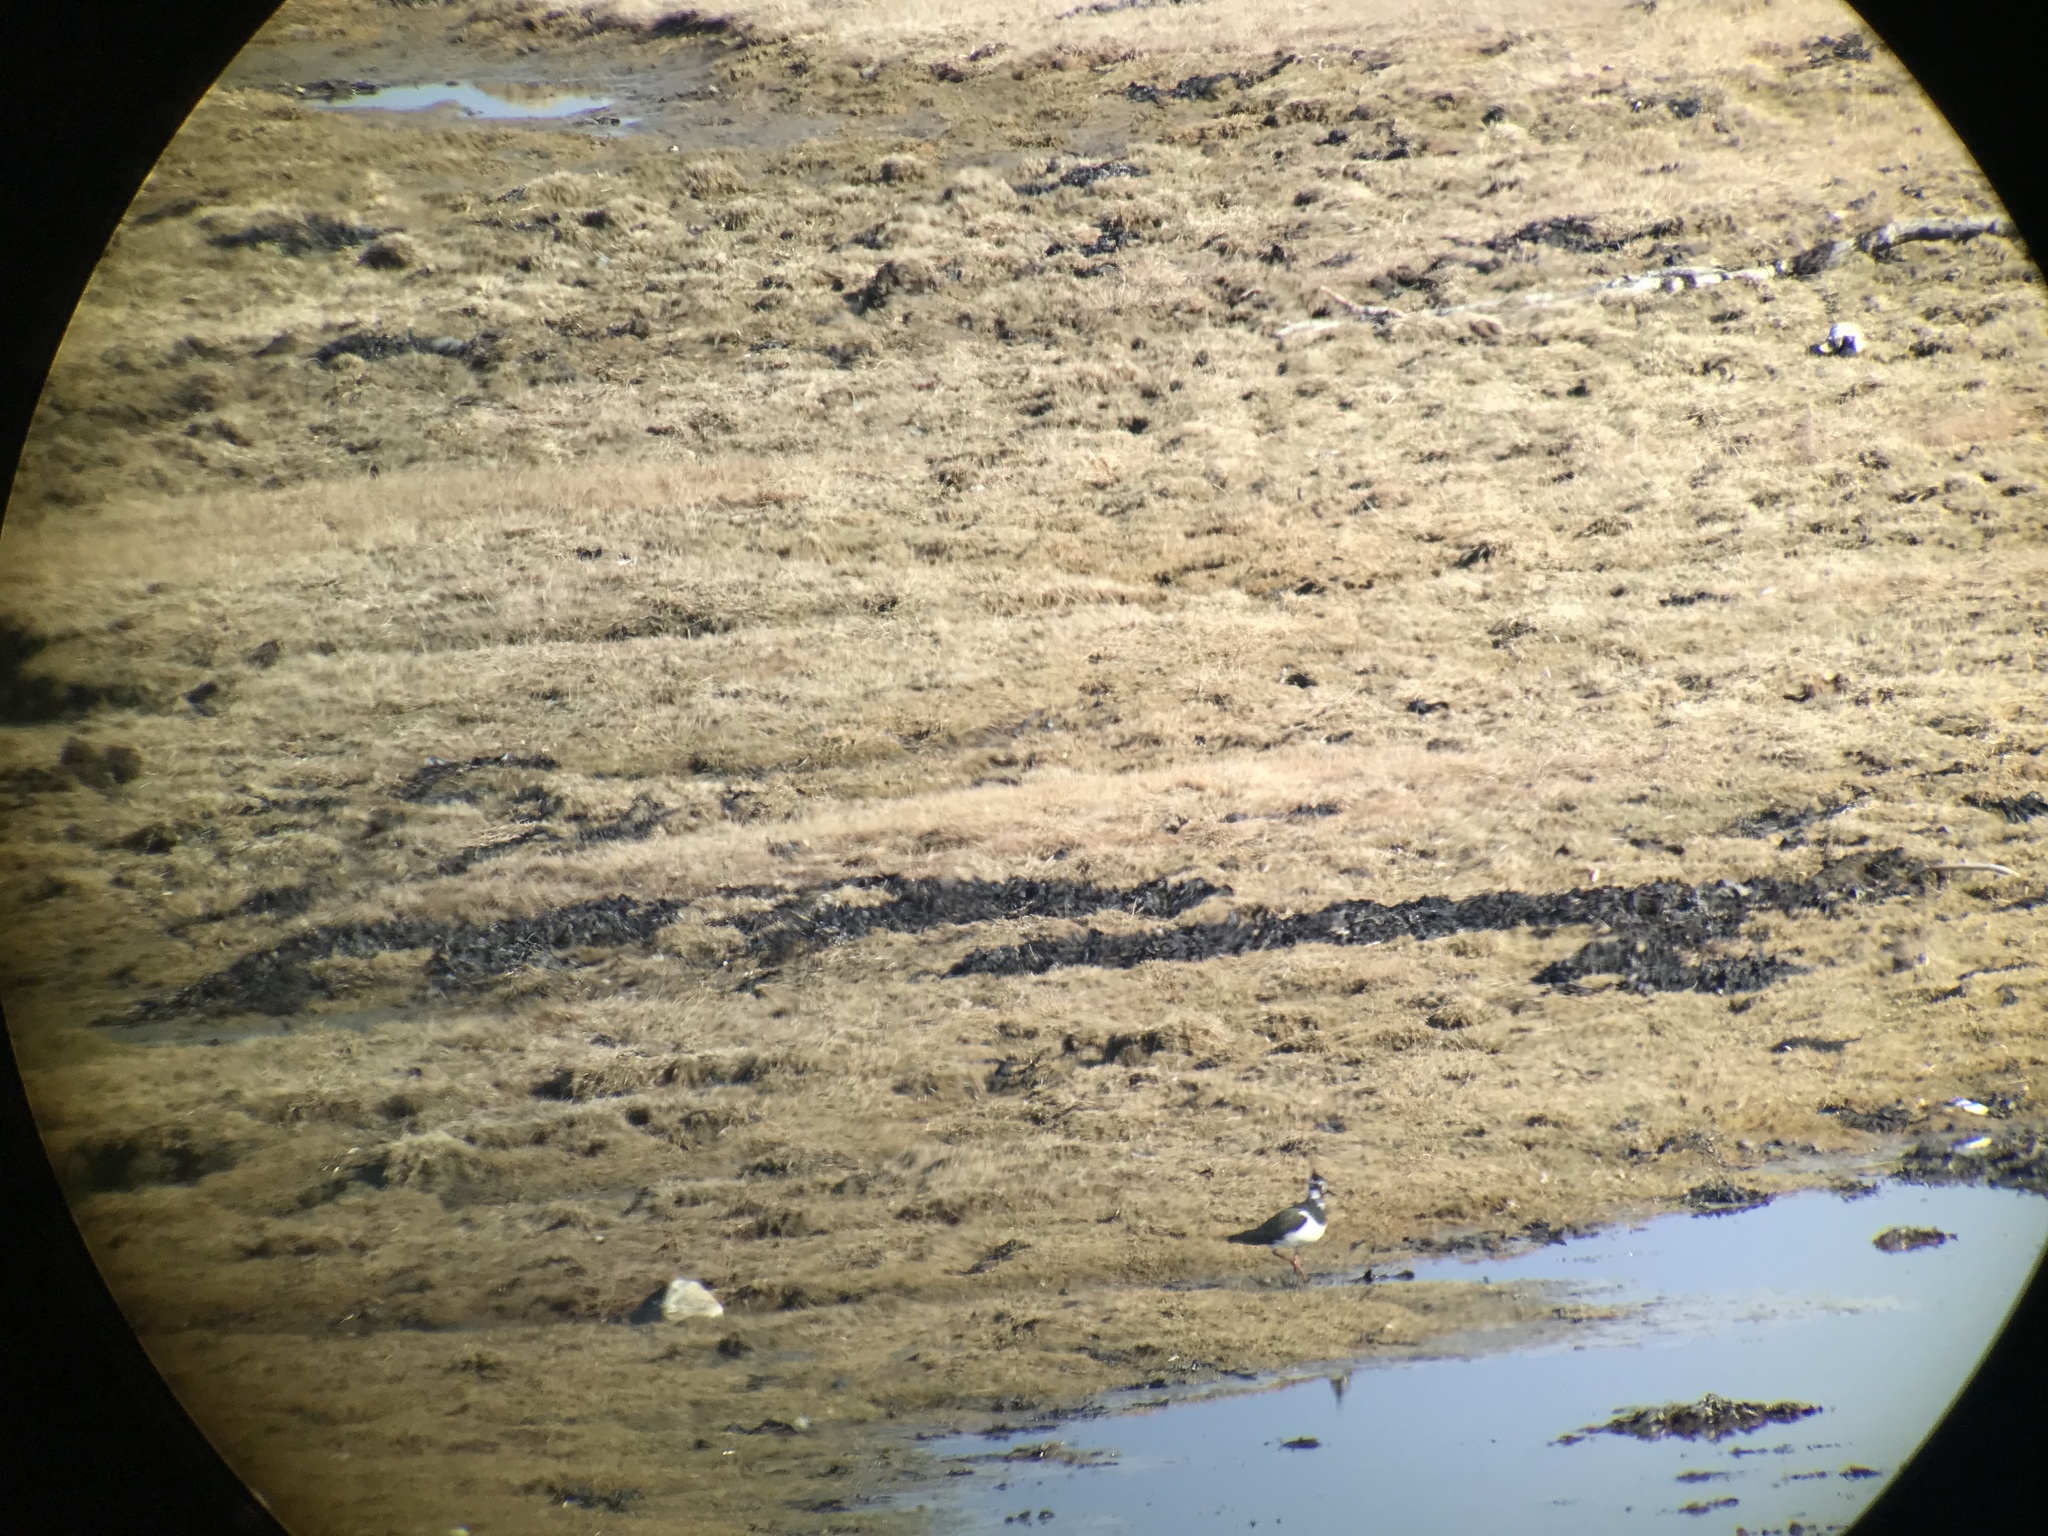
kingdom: Animalia
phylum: Chordata
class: Aves
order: Charadriiformes
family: Charadriidae
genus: Vanellus
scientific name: Vanellus vanellus
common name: Northern lapwing
